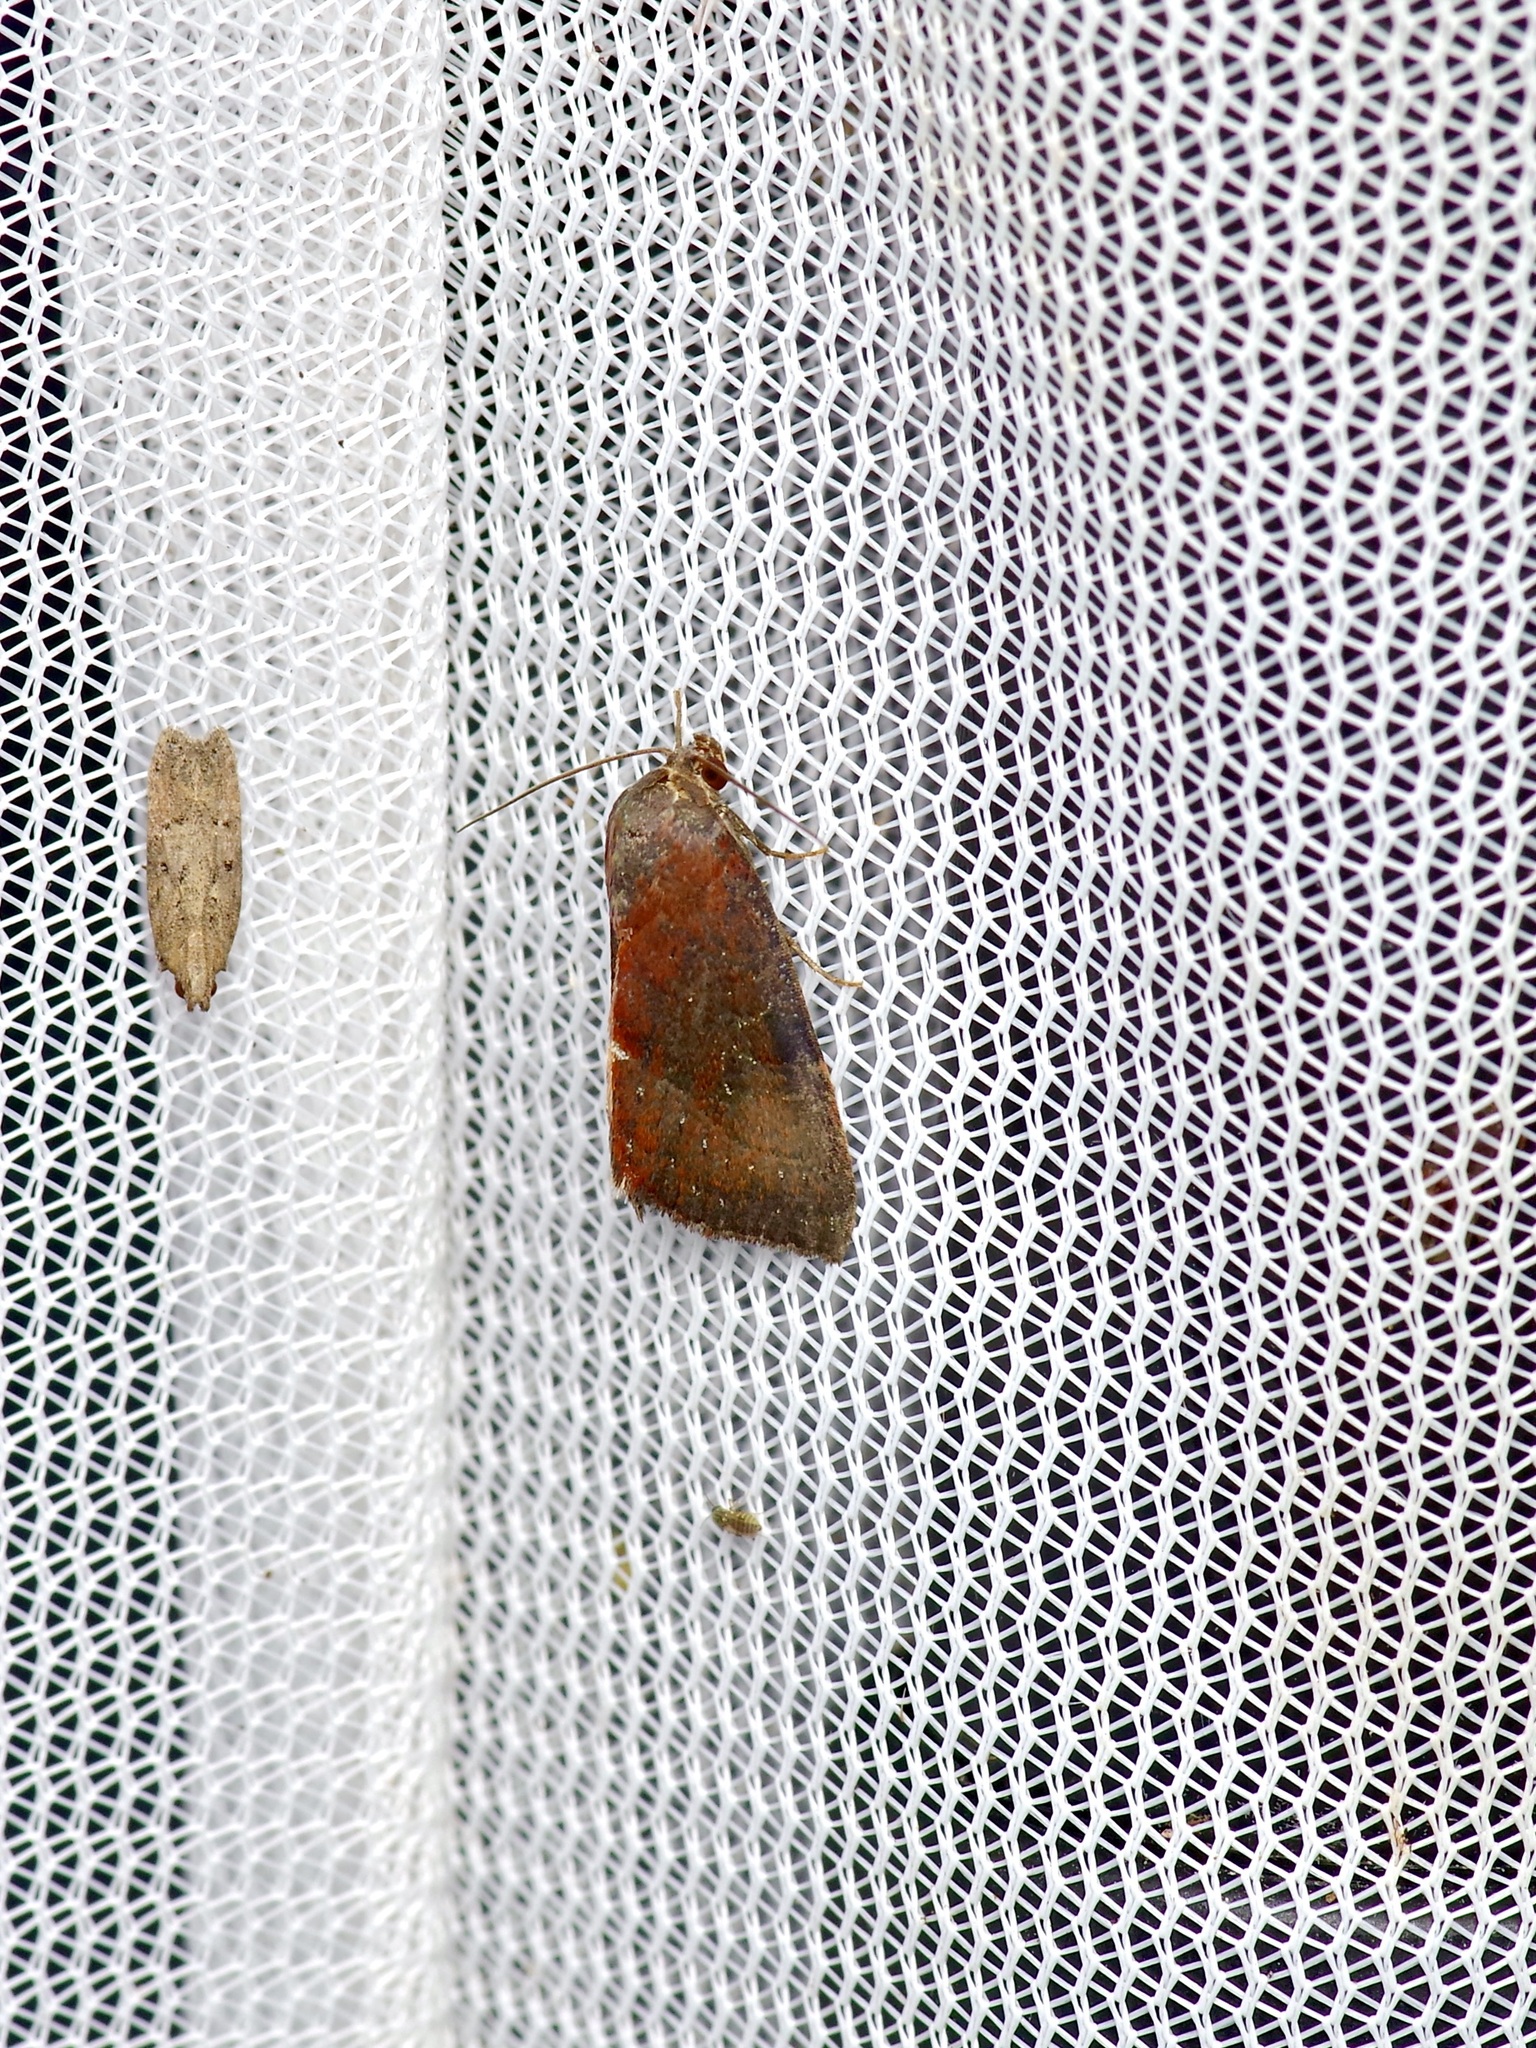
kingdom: Animalia
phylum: Arthropoda
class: Insecta
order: Lepidoptera
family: Noctuidae
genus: Galgula
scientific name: Galgula partita
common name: Wedgeling
